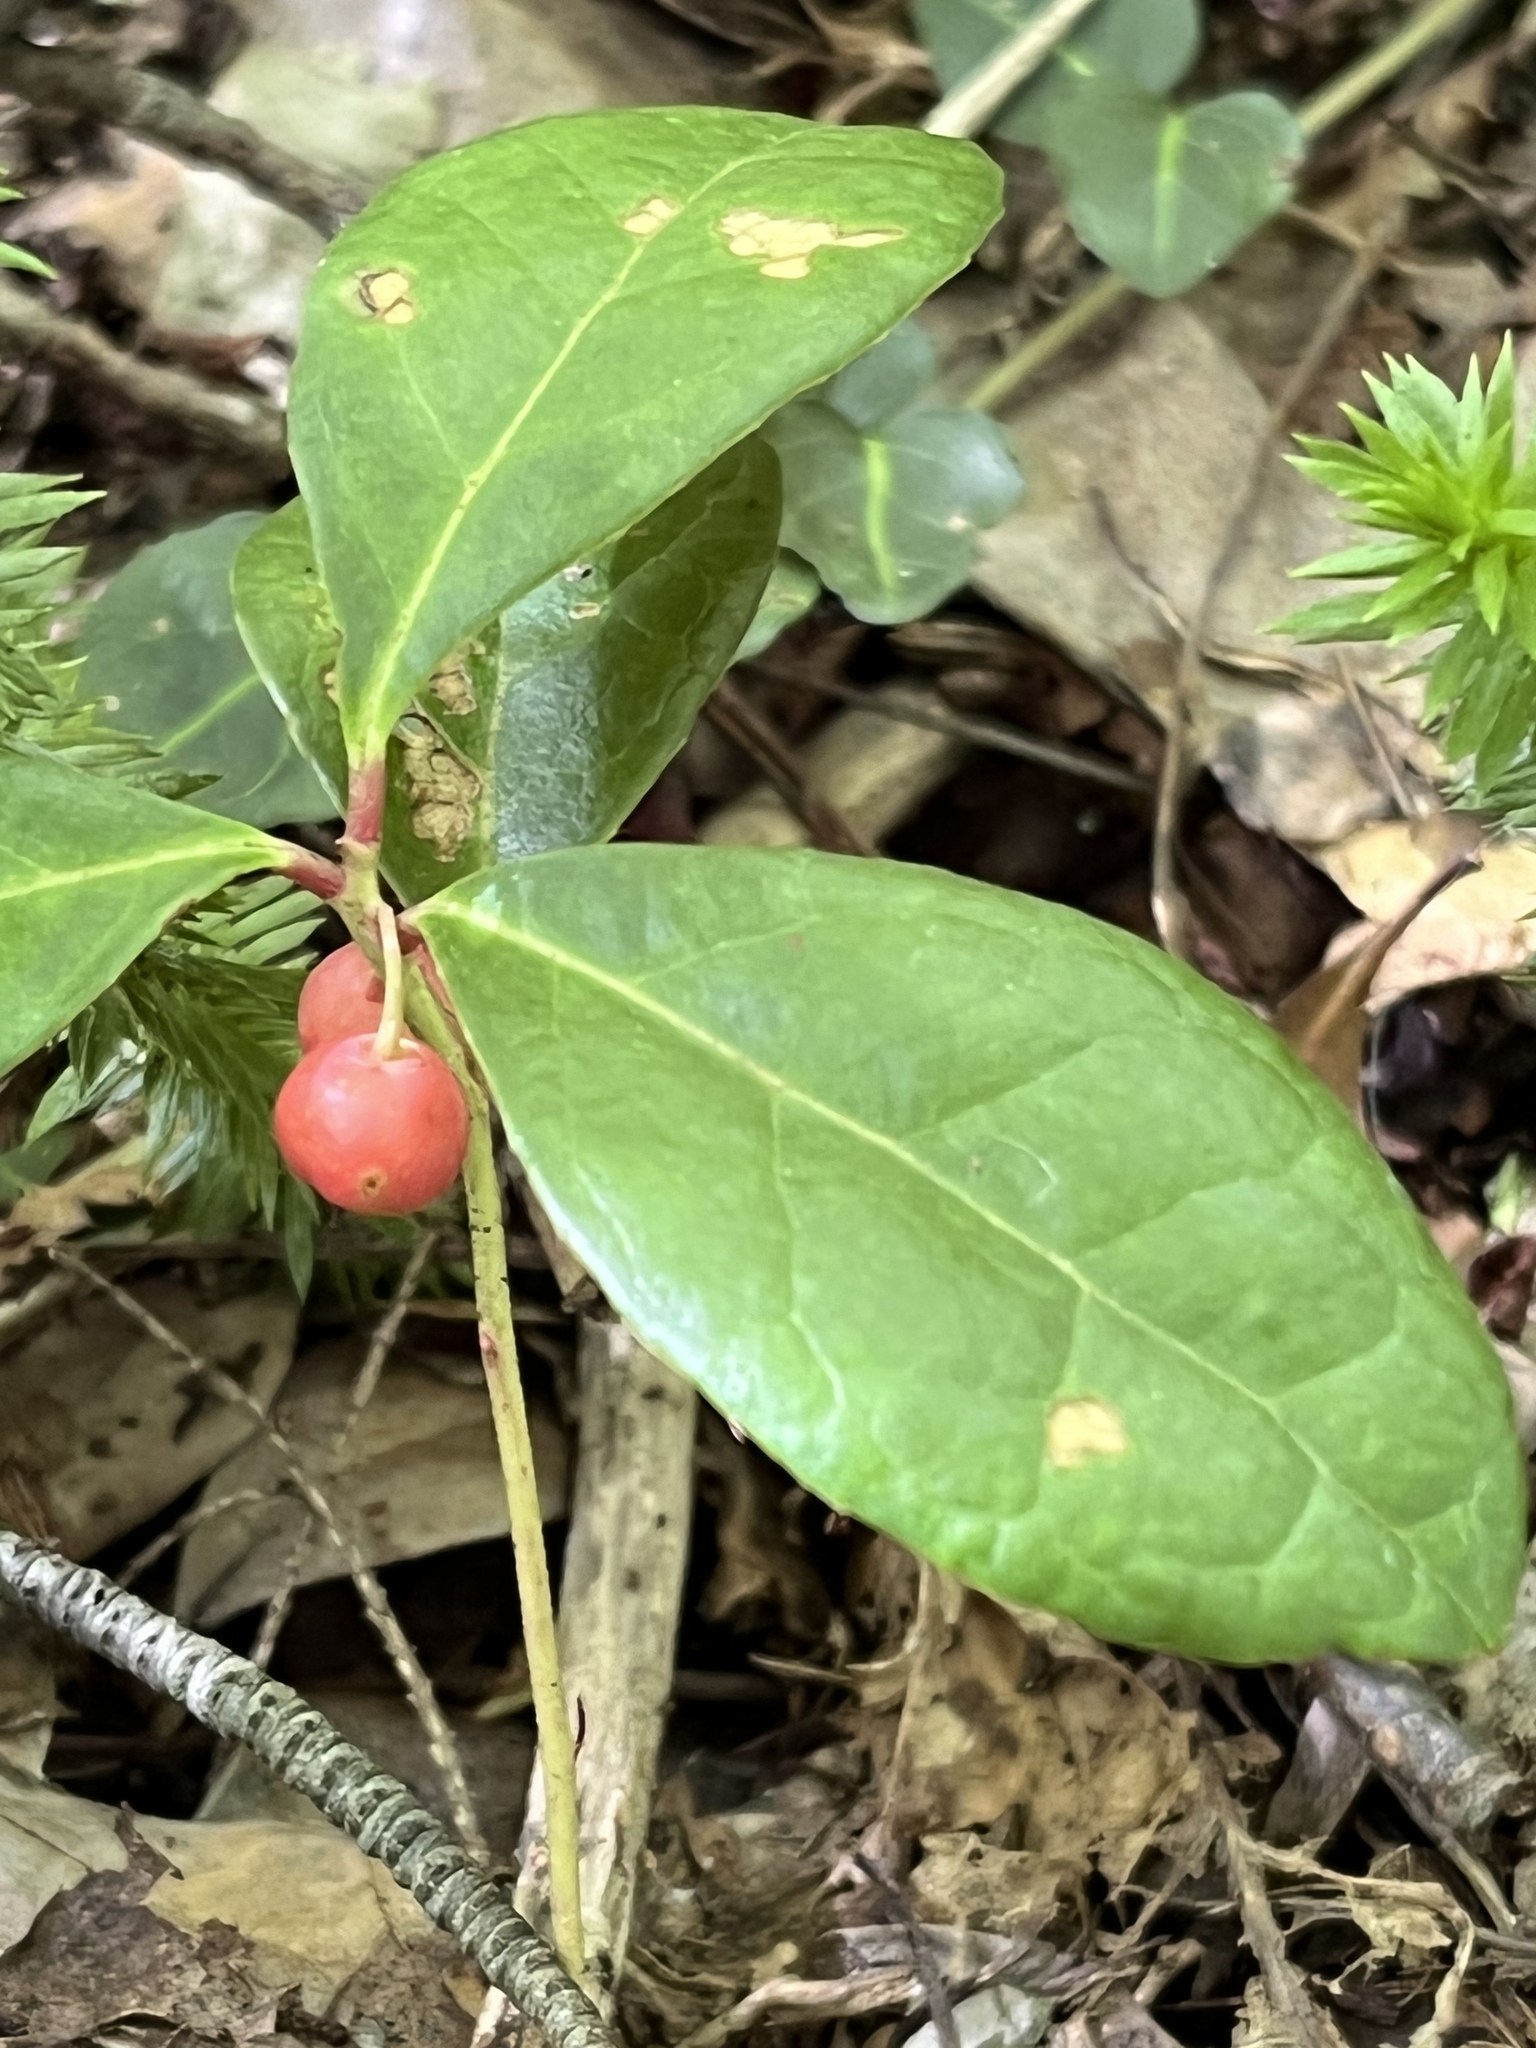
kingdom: Plantae
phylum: Tracheophyta
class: Magnoliopsida
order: Ericales
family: Ericaceae
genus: Gaultheria
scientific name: Gaultheria procumbens
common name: Checkerberry
